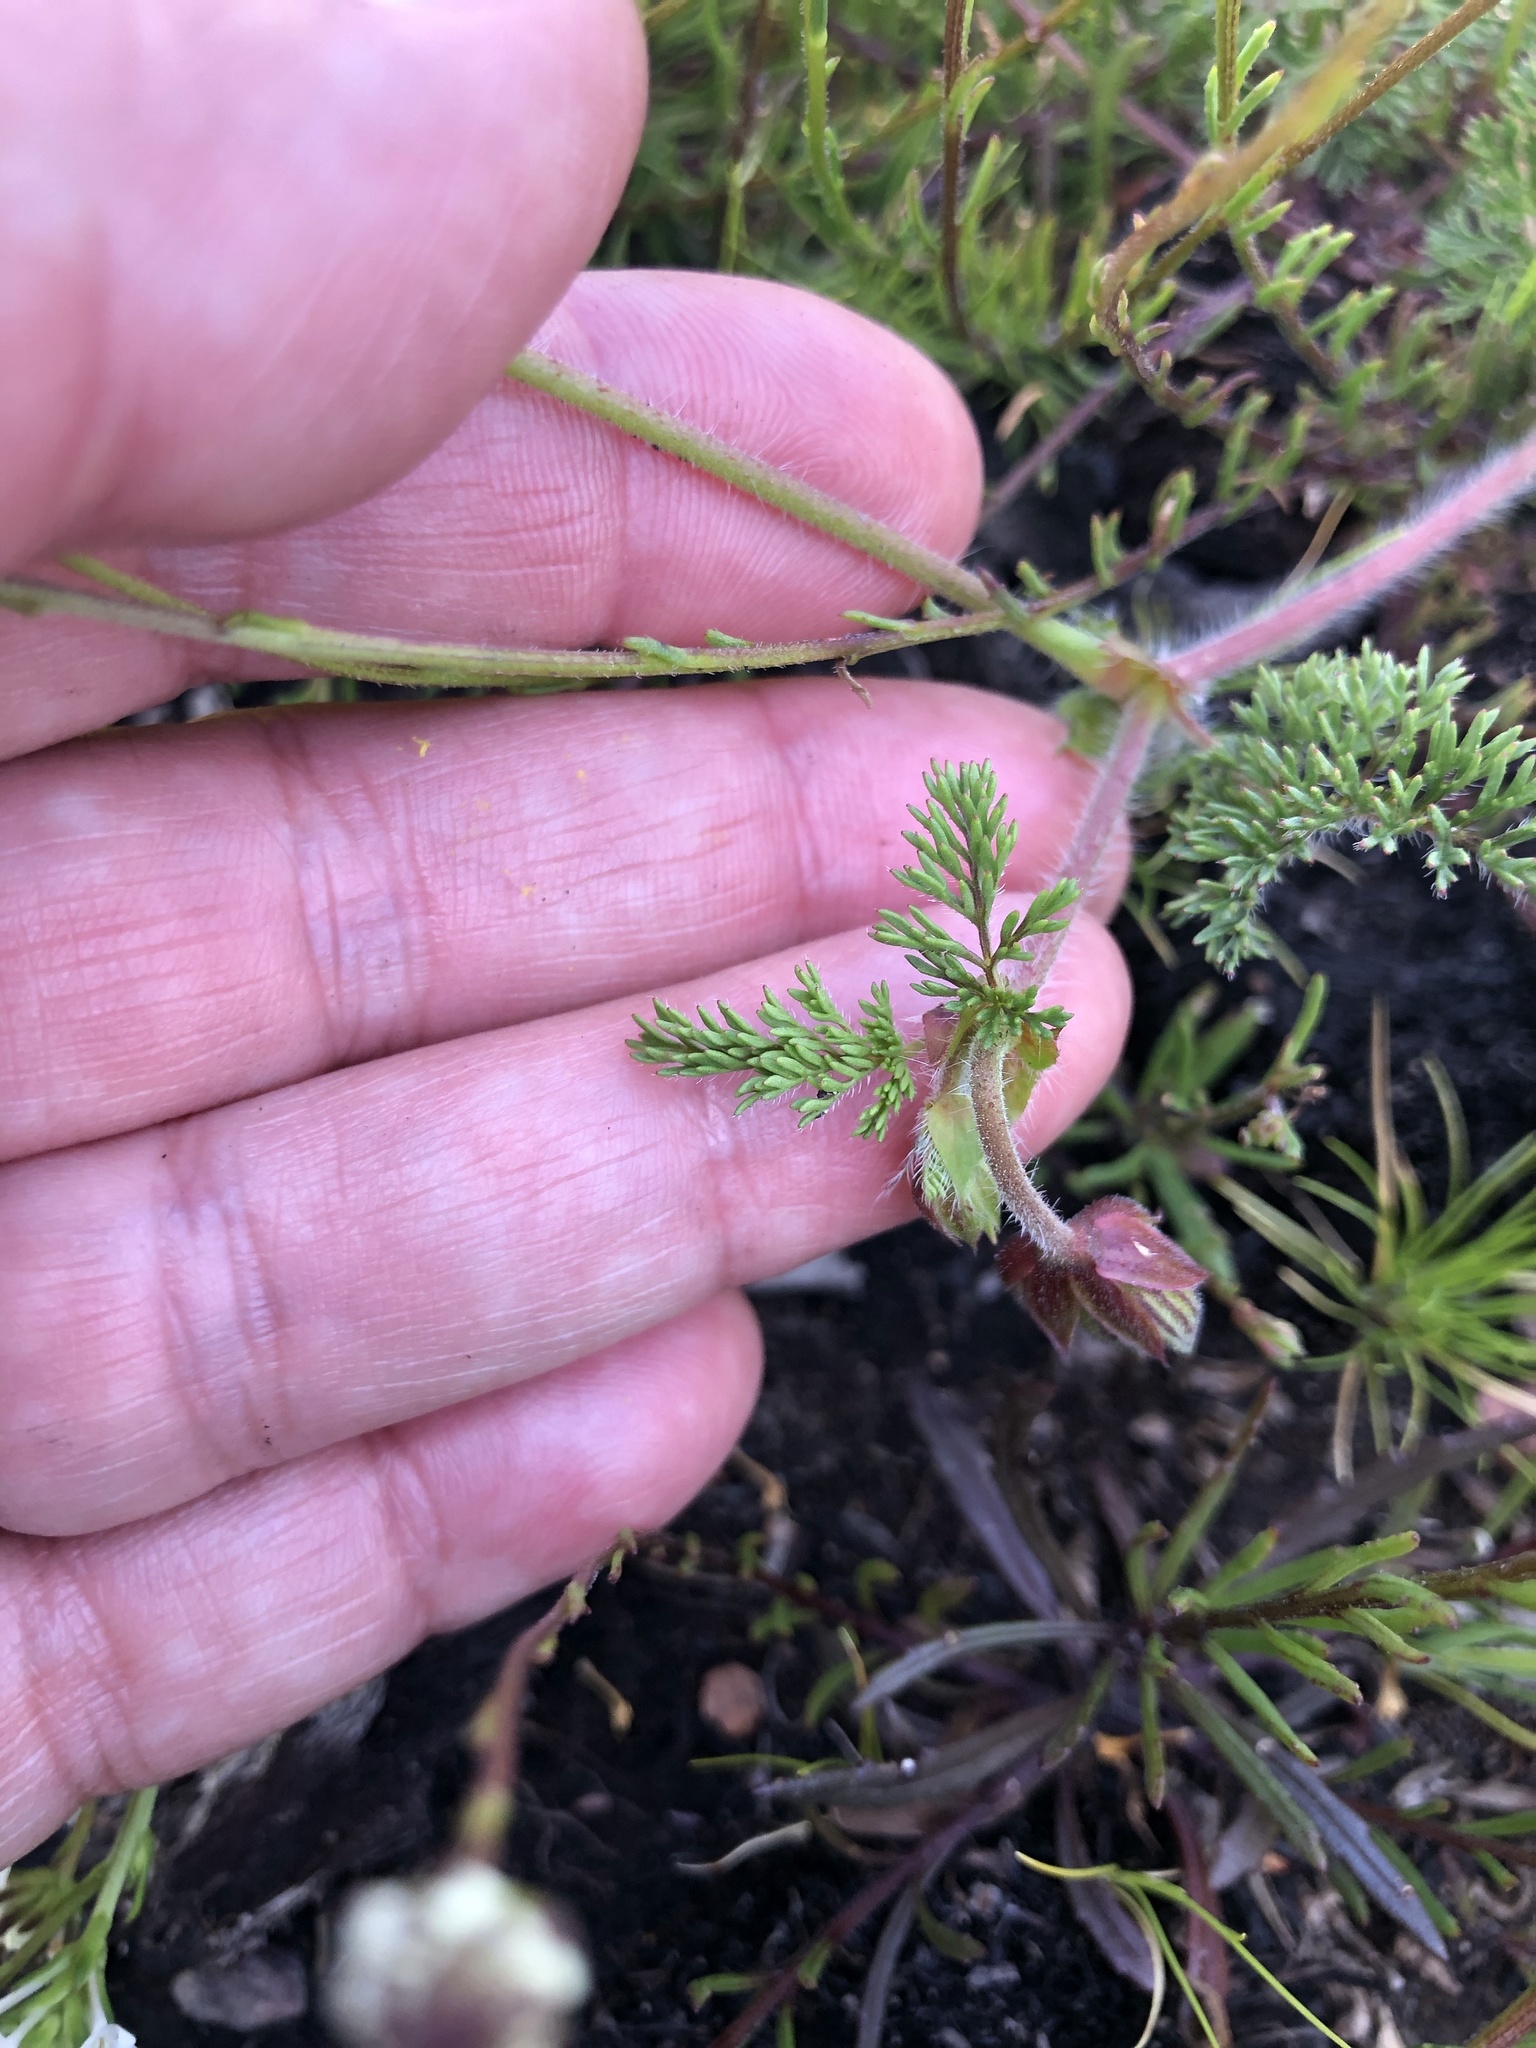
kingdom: Plantae
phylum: Tracheophyta
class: Magnoliopsida
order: Geraniales
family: Geraniaceae
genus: Pelargonium
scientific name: Pelargonium myrrhifolium
